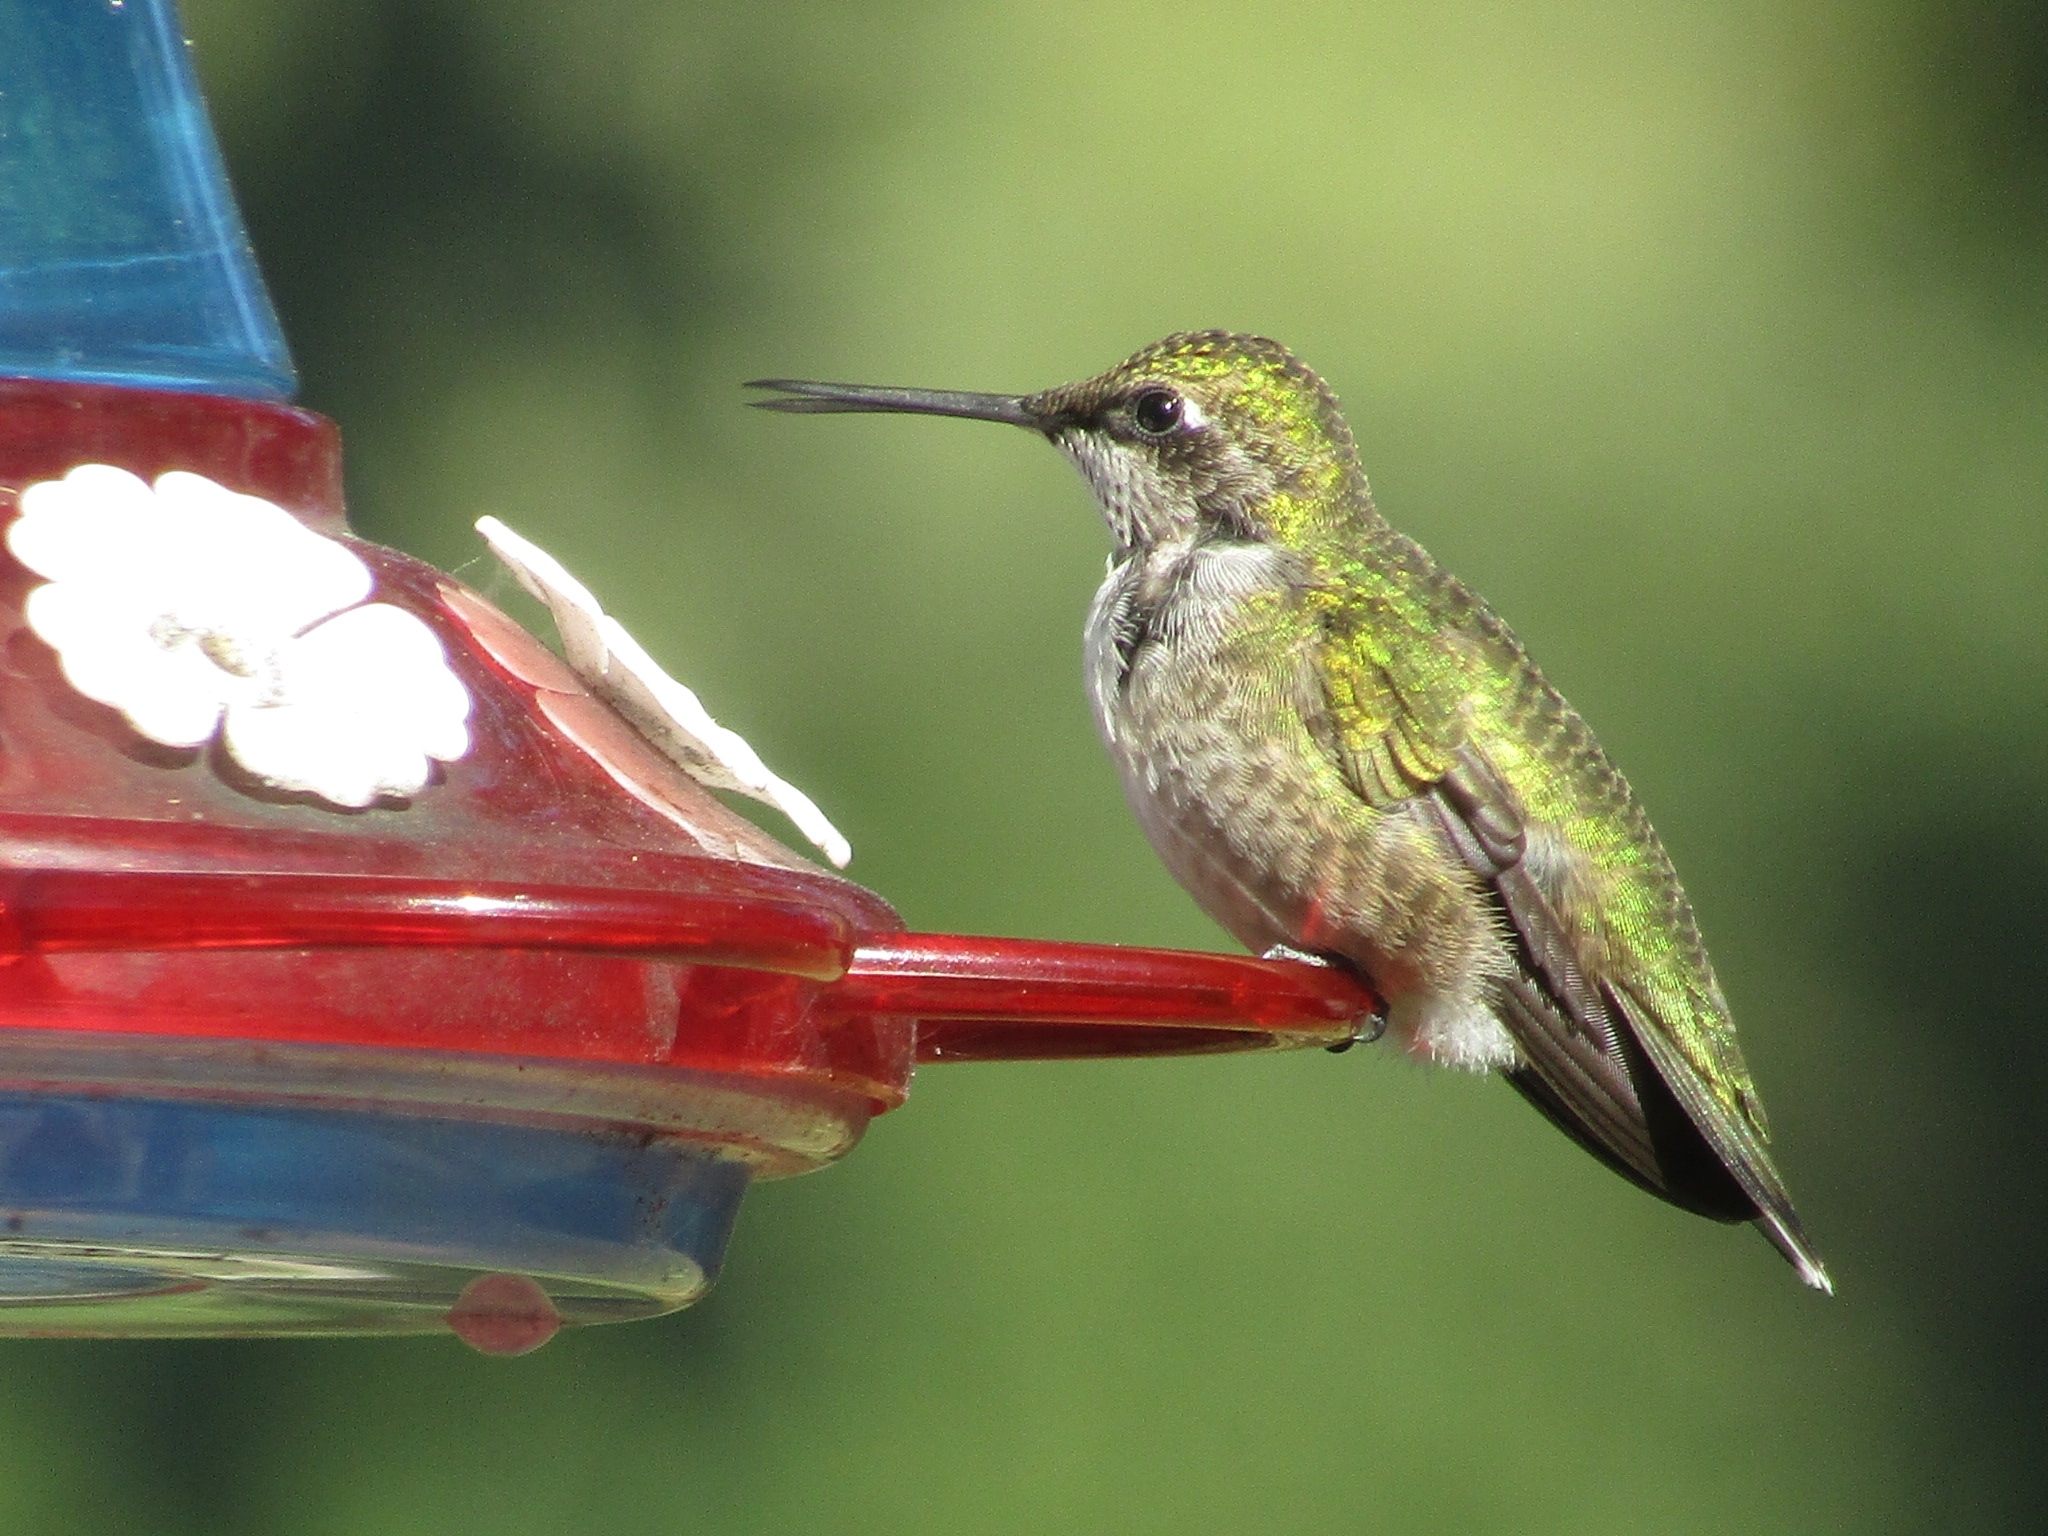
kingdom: Animalia
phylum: Chordata
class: Aves
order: Apodiformes
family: Trochilidae
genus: Archilochus
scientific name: Archilochus colubris
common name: Ruby-throated hummingbird
